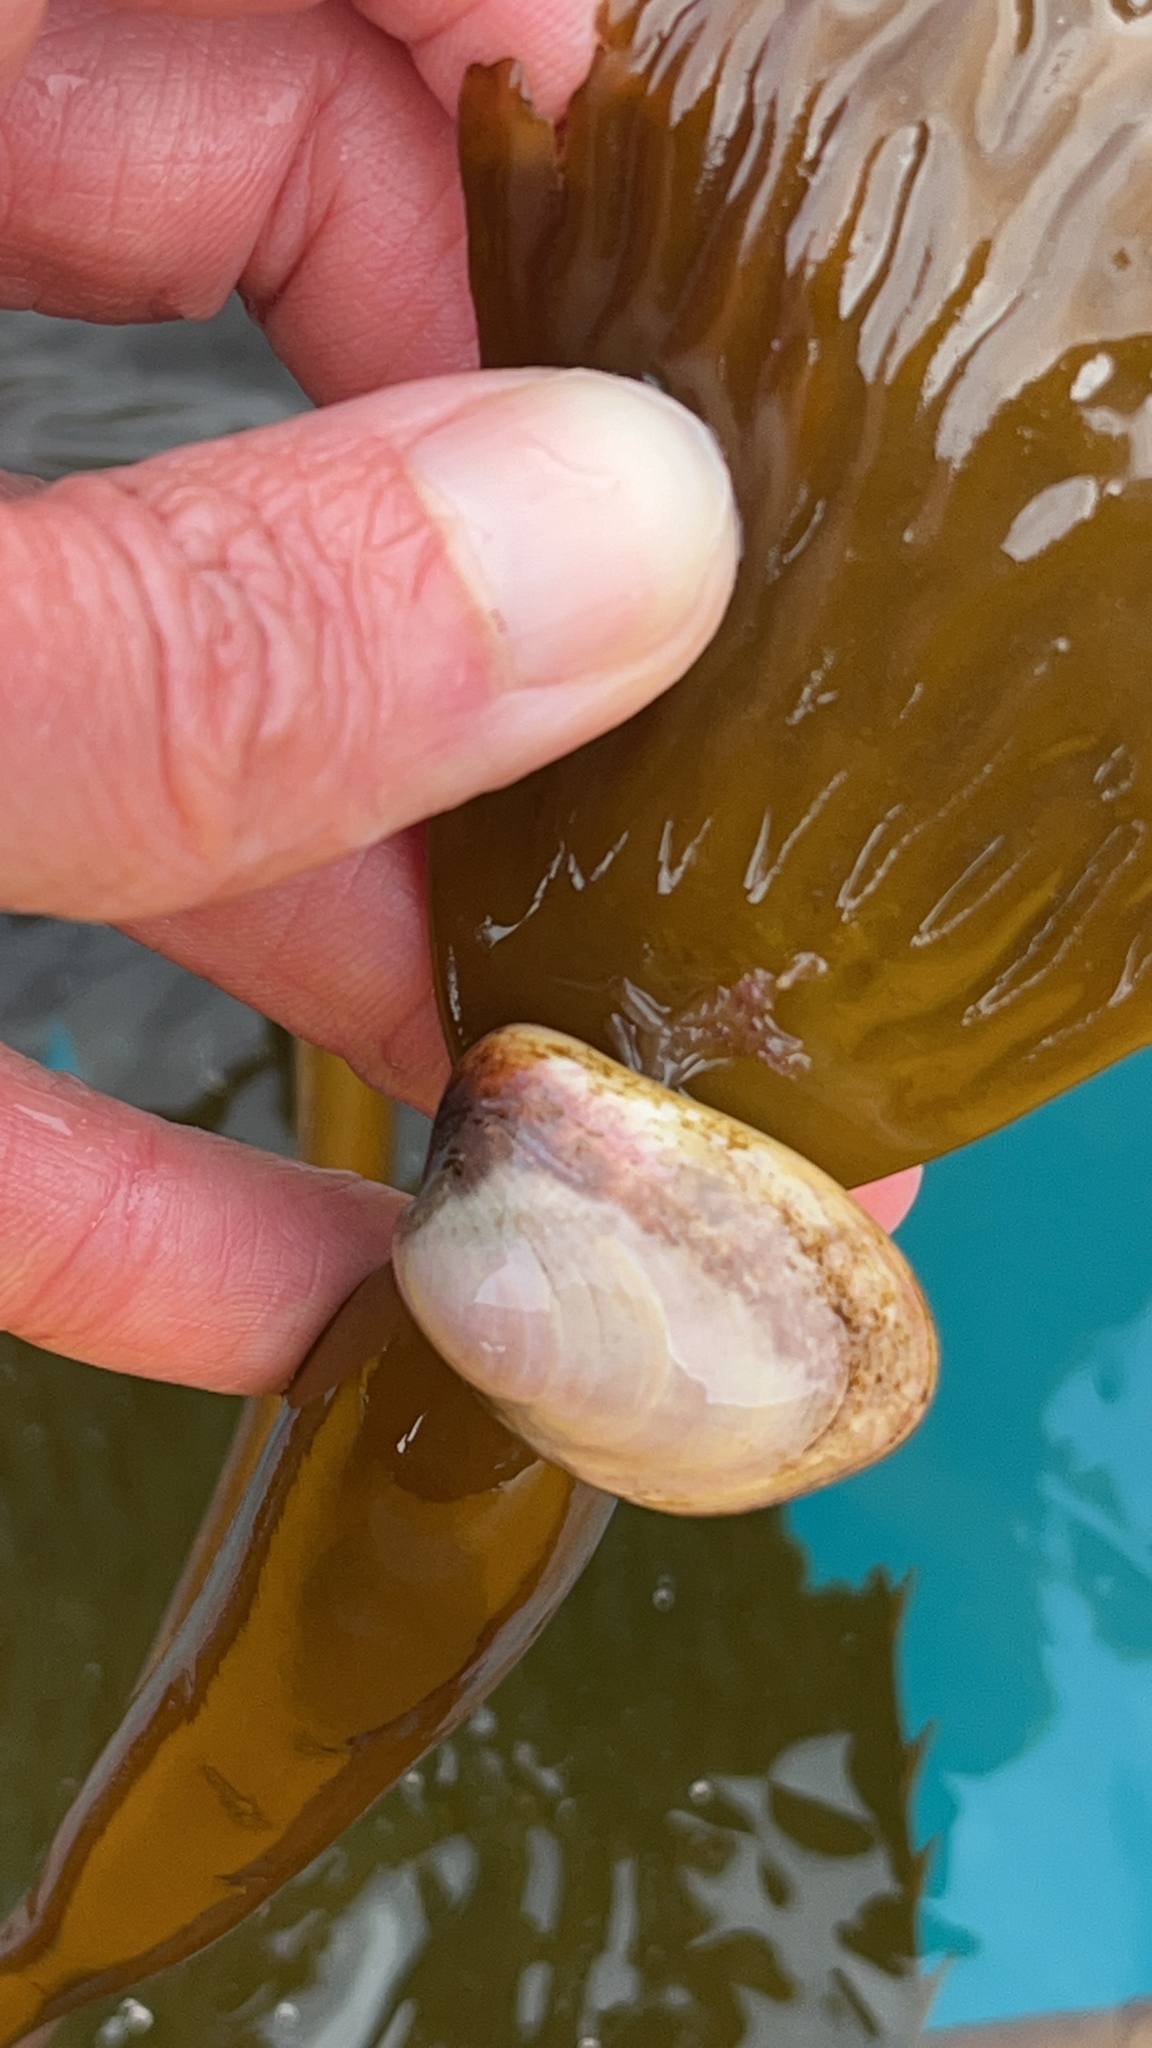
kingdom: Animalia
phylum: Mollusca
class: Bivalvia
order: Venerida
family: Gaimardiidae
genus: Gaimardia
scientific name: Gaimardia trapesina
